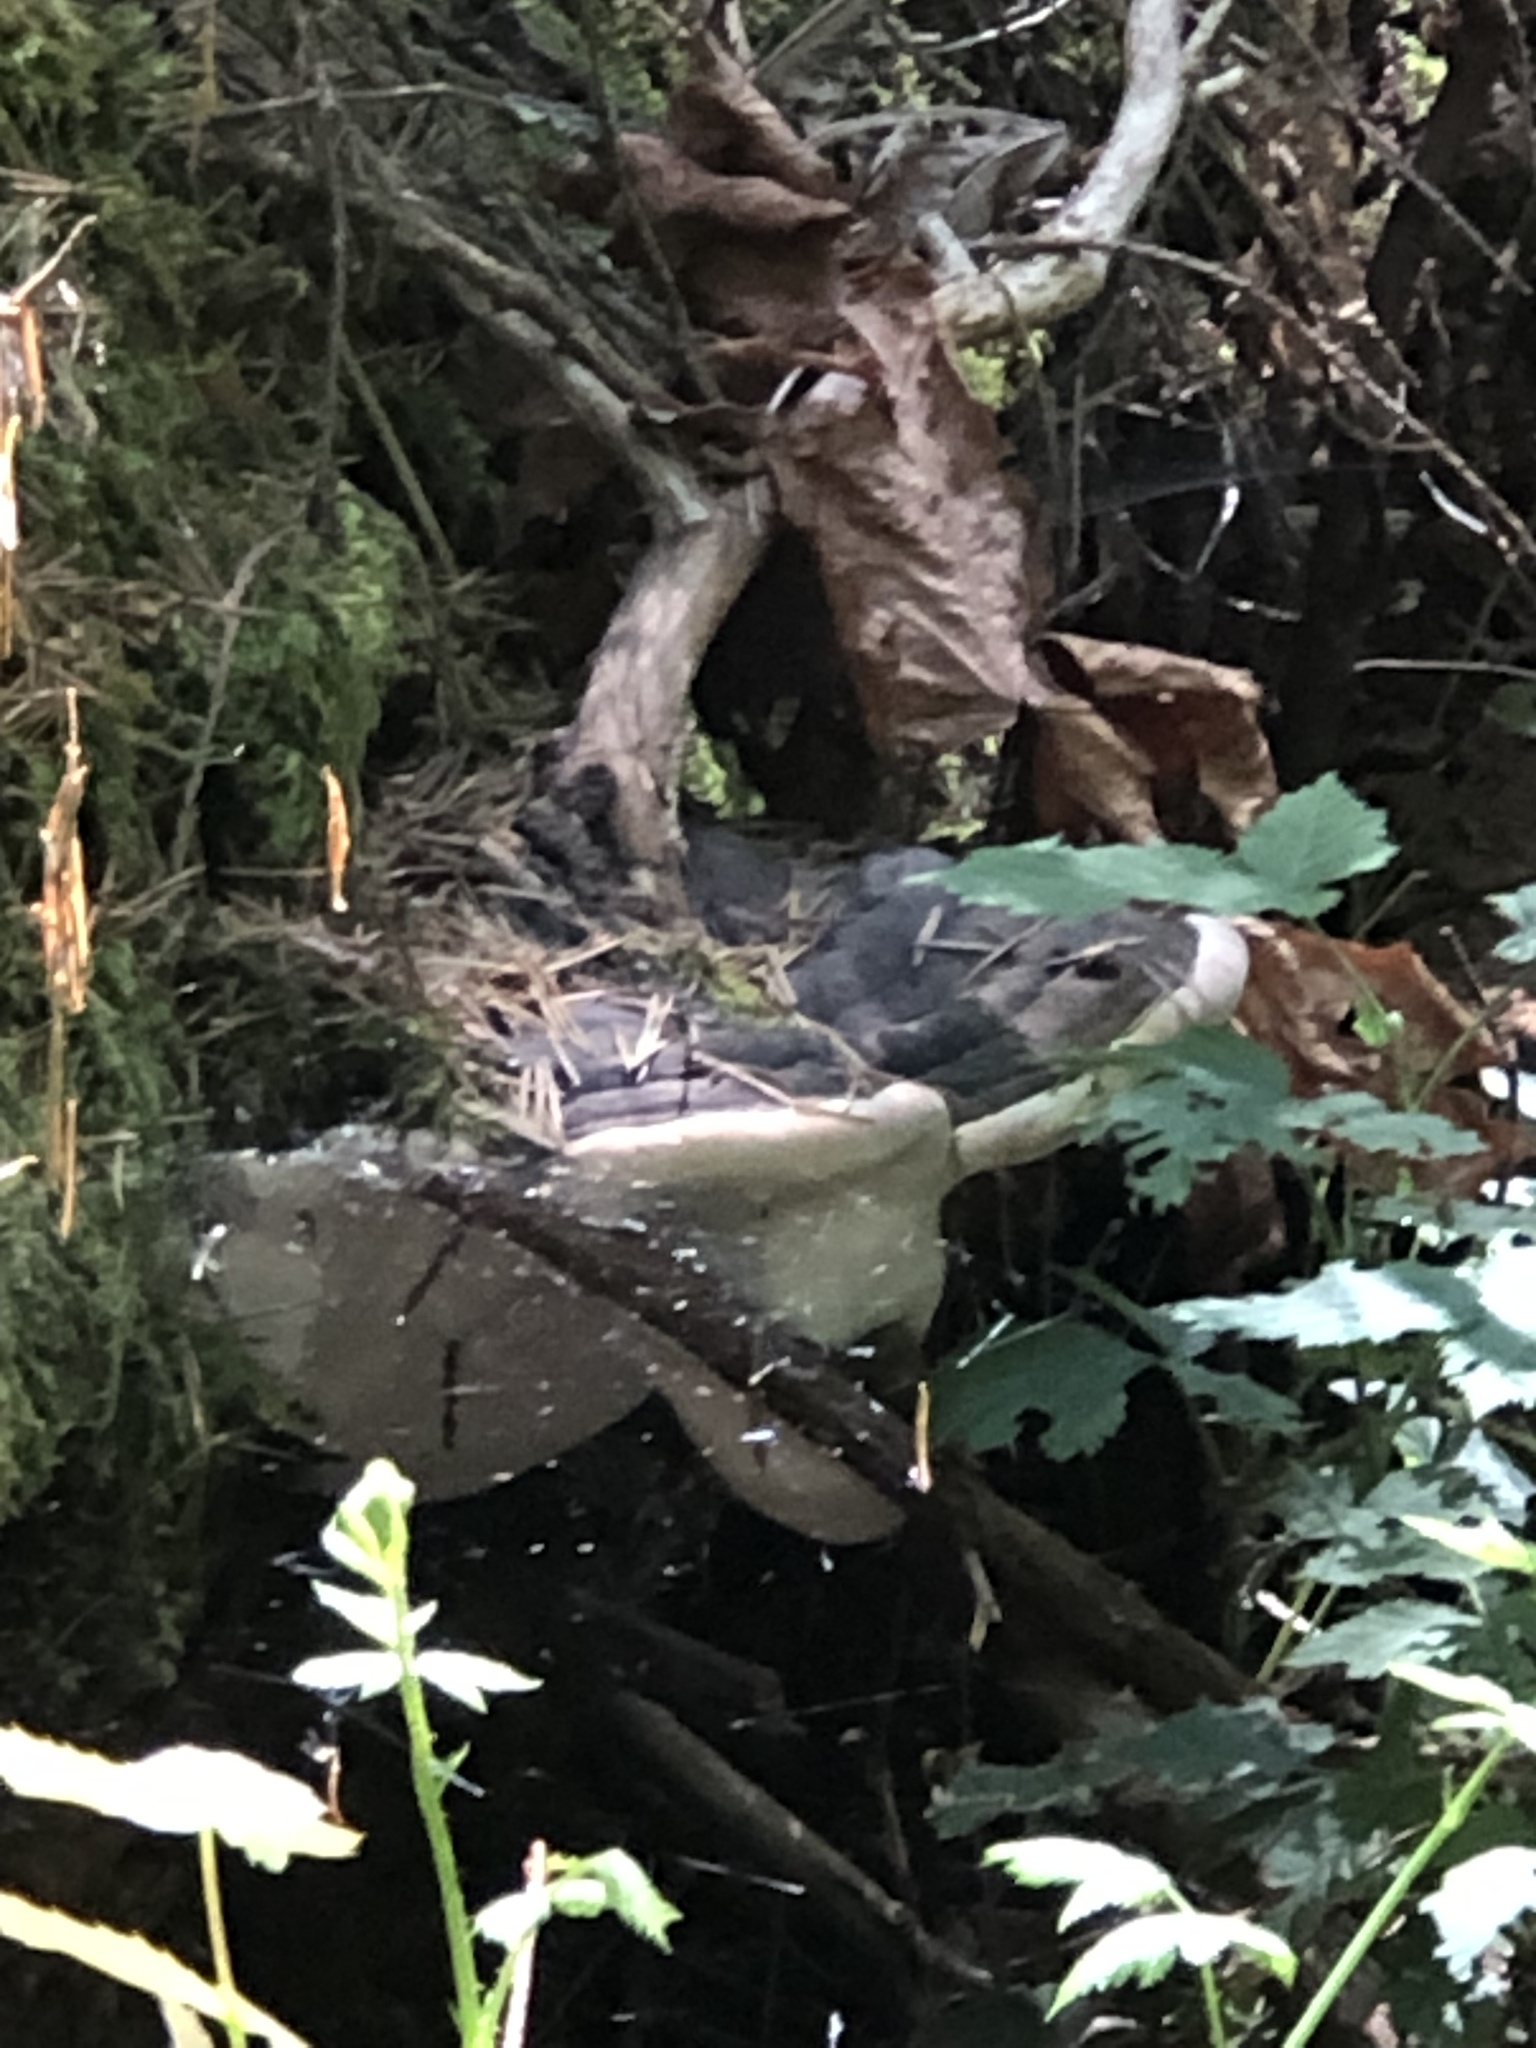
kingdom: Fungi
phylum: Basidiomycota
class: Agaricomycetes
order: Polyporales
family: Fomitopsidaceae
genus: Fomitopsis
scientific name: Fomitopsis ochracea
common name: American brown fomitopsis
